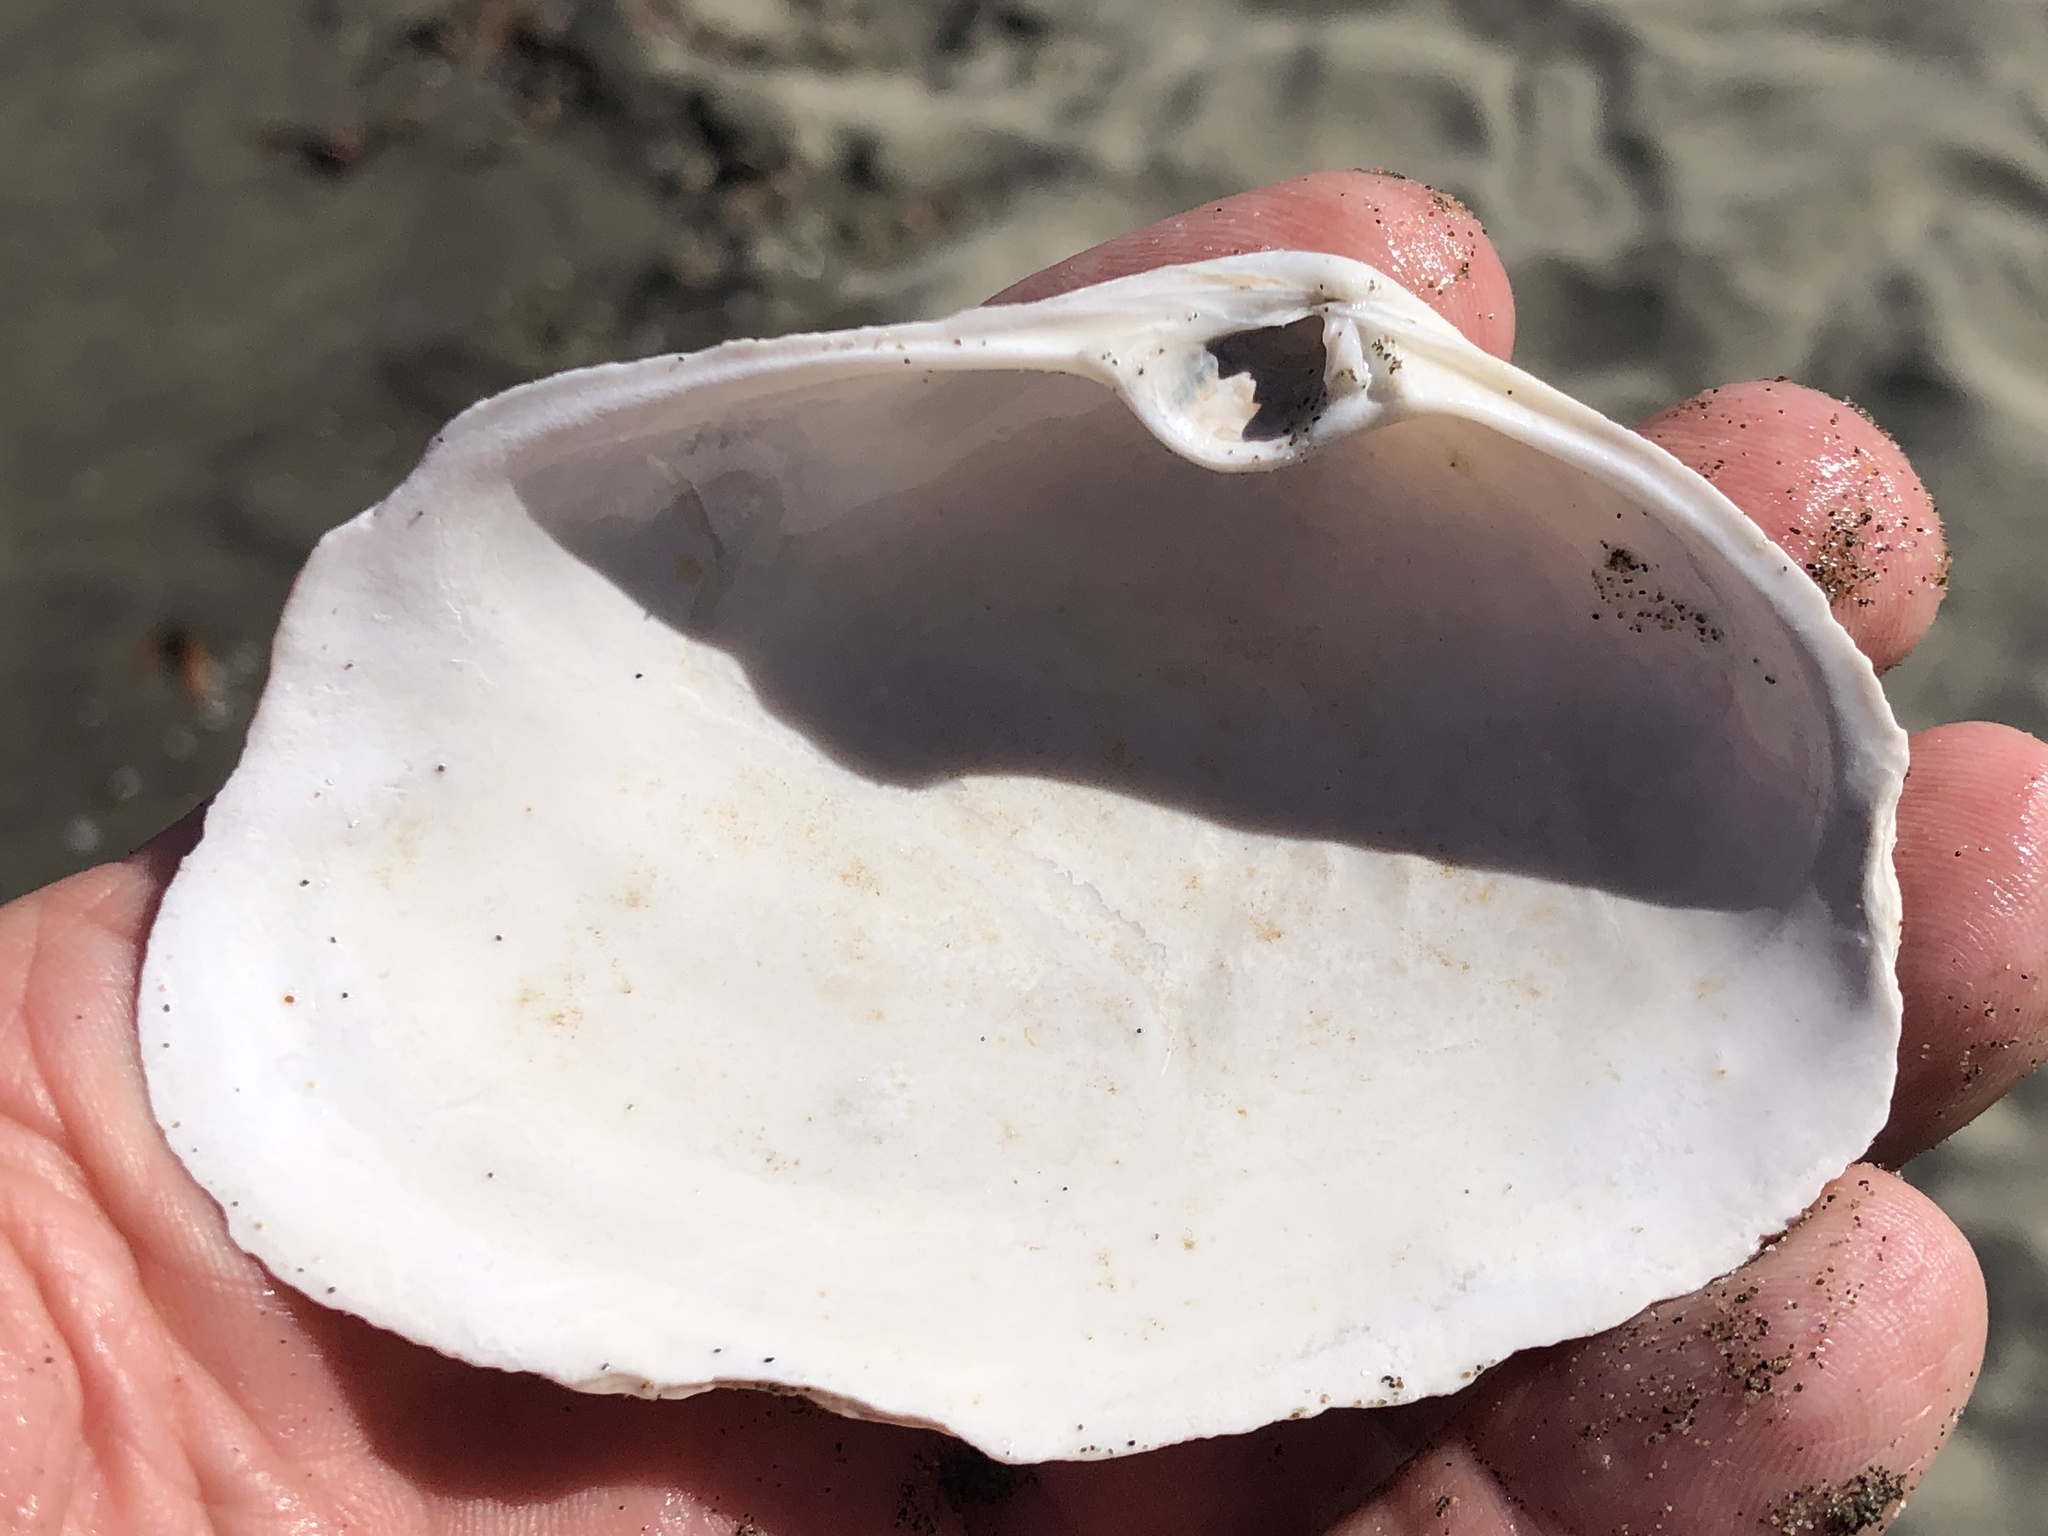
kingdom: Animalia
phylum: Mollusca
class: Bivalvia
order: Venerida
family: Mactridae
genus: Tresus
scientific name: Tresus nuttallii
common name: Pacific gaper clam
